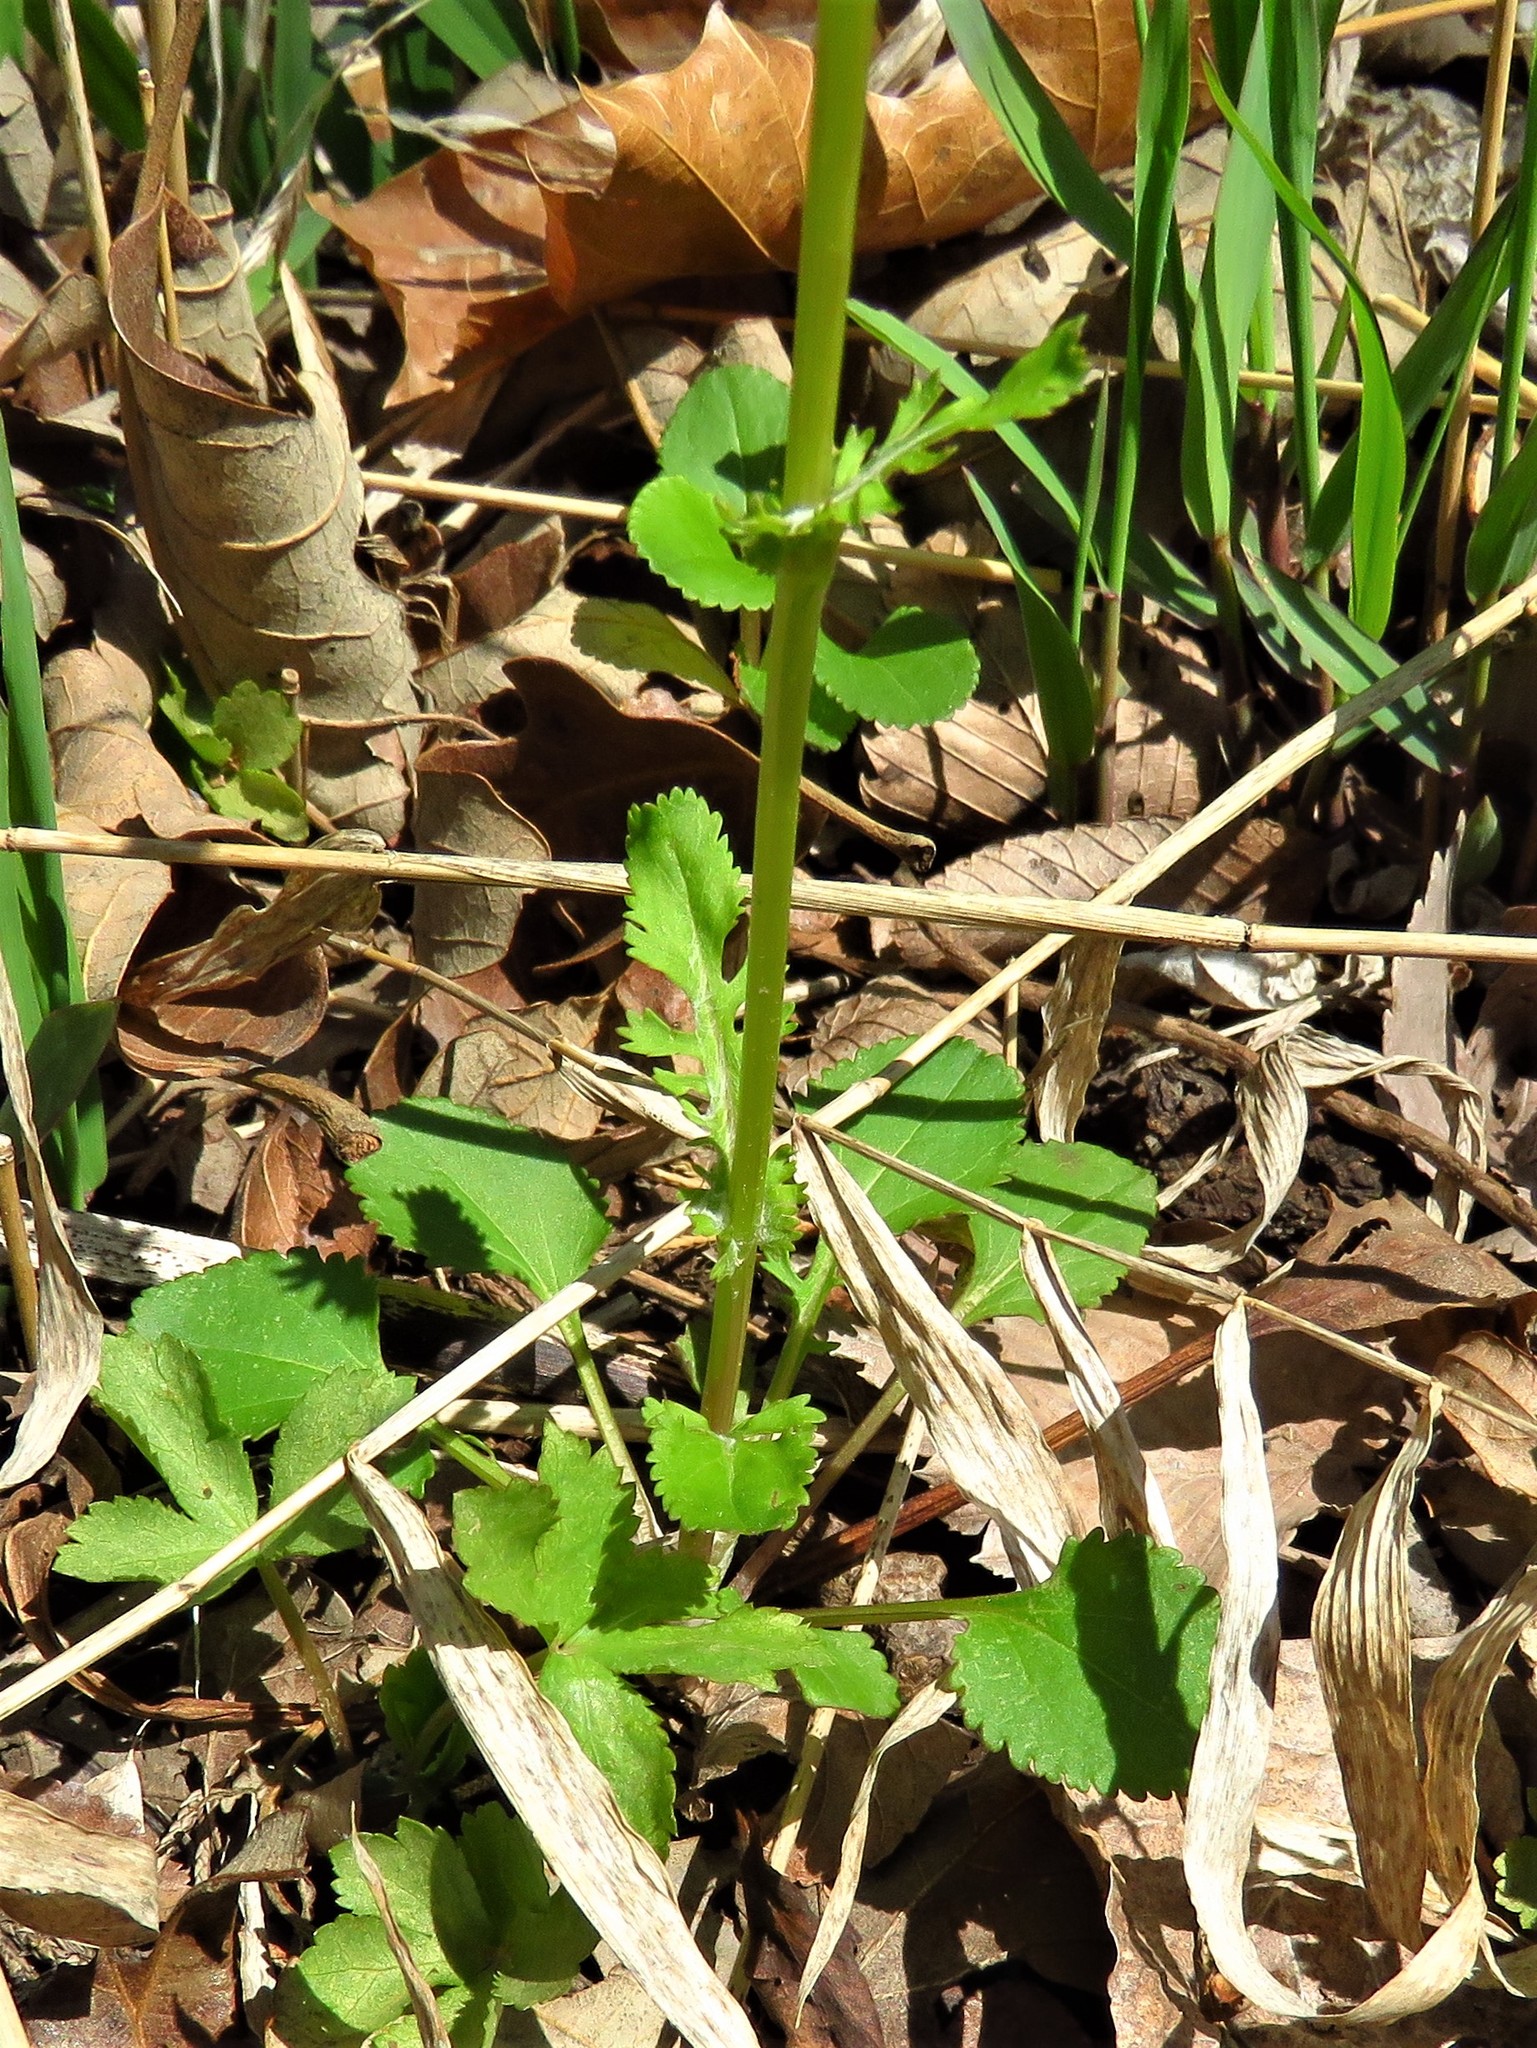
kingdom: Plantae
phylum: Tracheophyta
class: Magnoliopsida
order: Asterales
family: Asteraceae
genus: Packera
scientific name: Packera obovata
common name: Round-leaf ragwort
